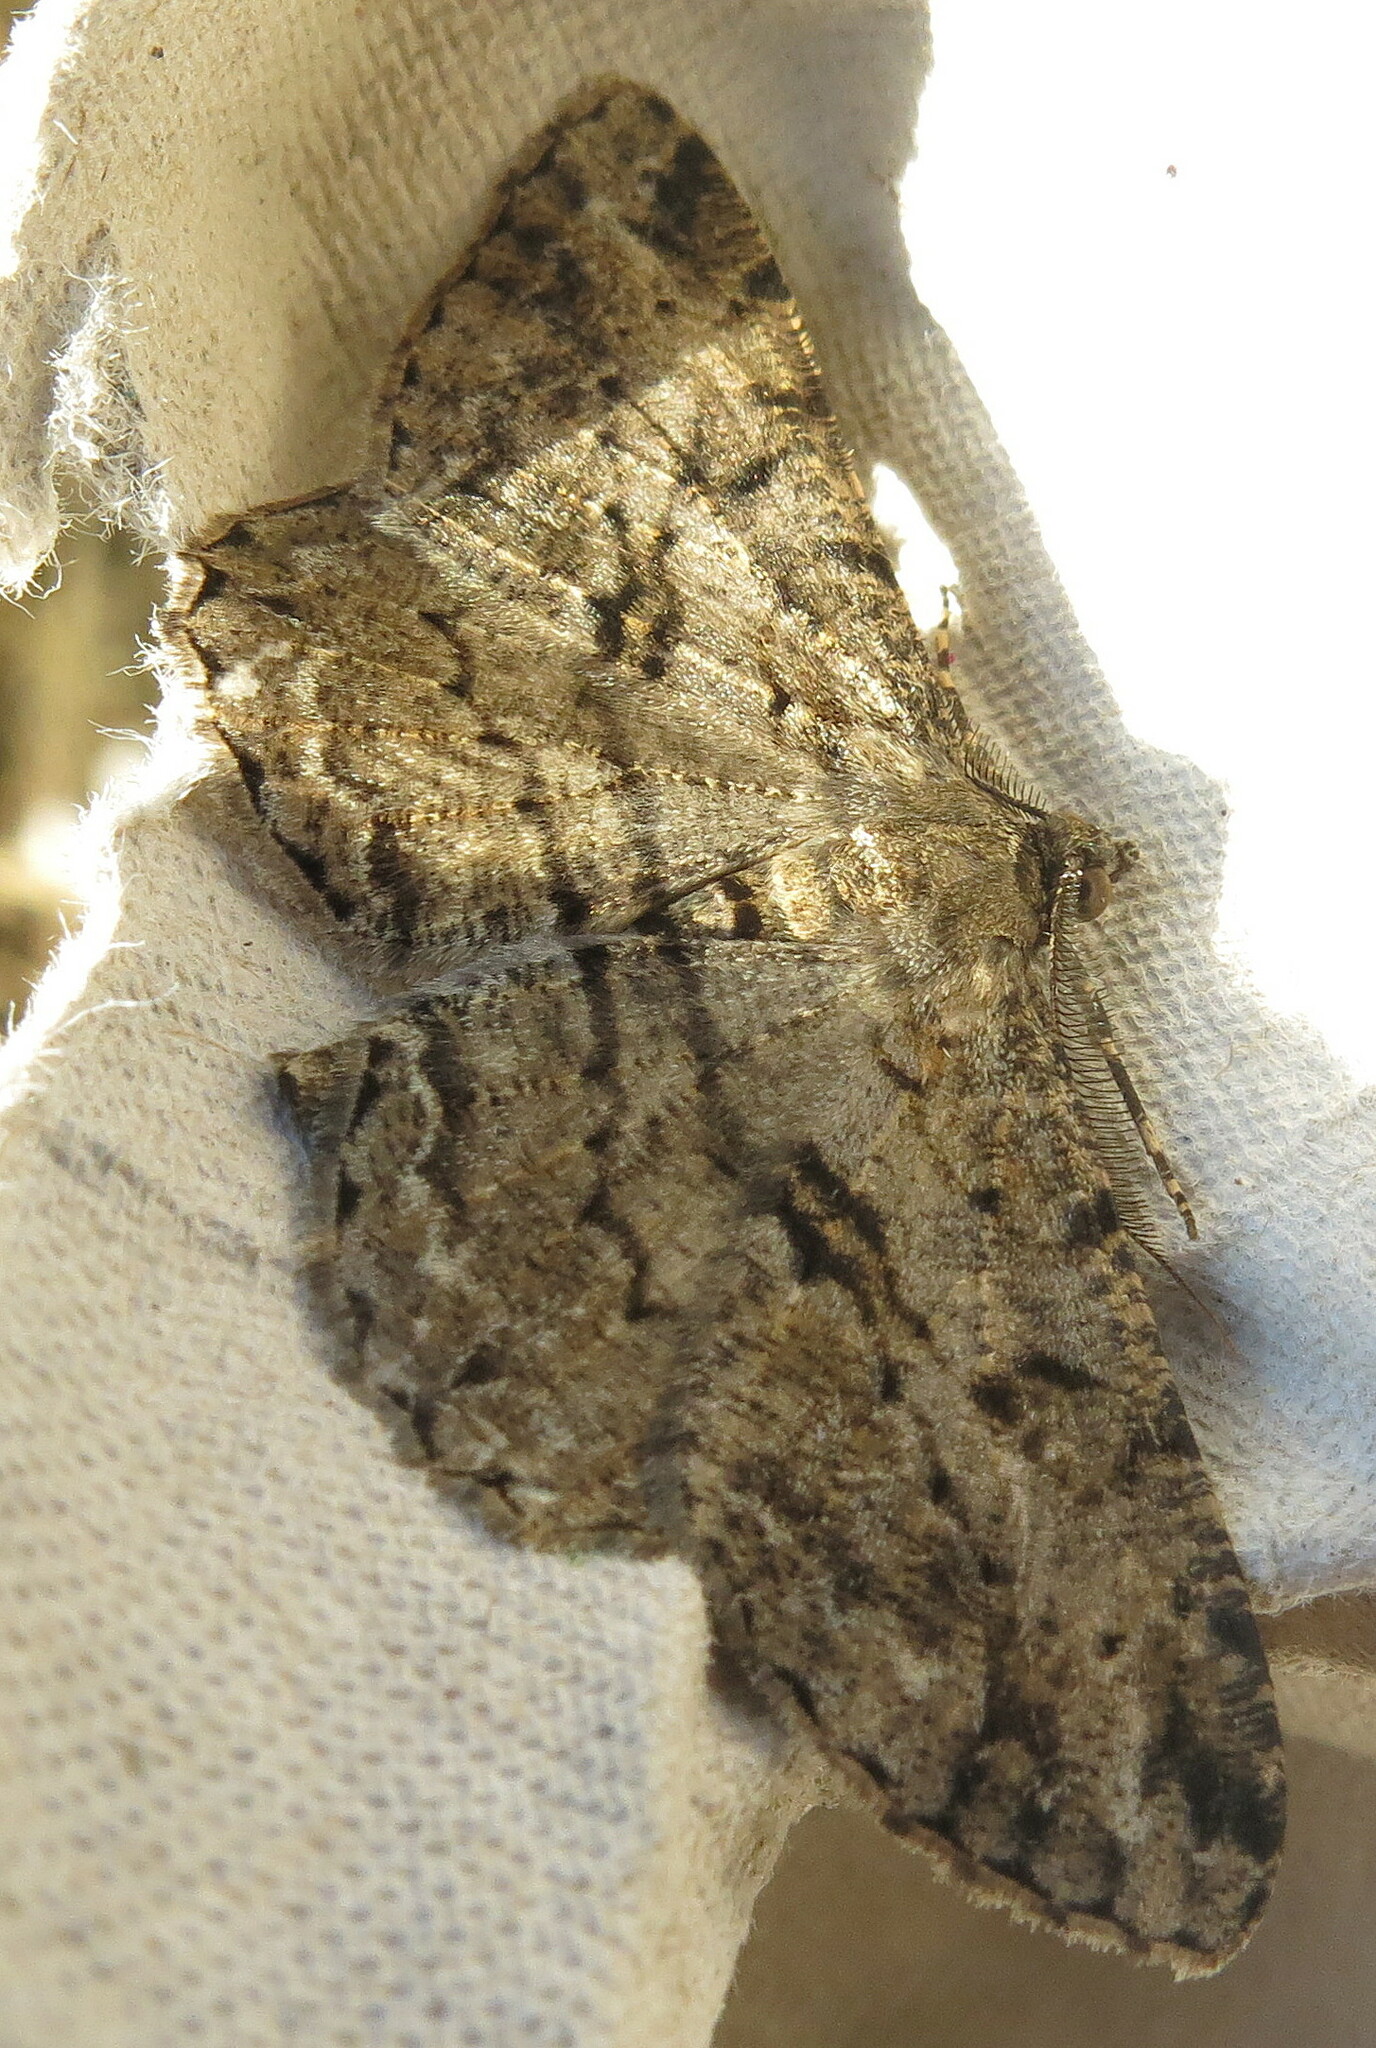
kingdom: Animalia
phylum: Arthropoda
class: Insecta
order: Lepidoptera
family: Geometridae
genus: Peribatodes
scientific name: Peribatodes rhomboidaria
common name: Willow beauty
